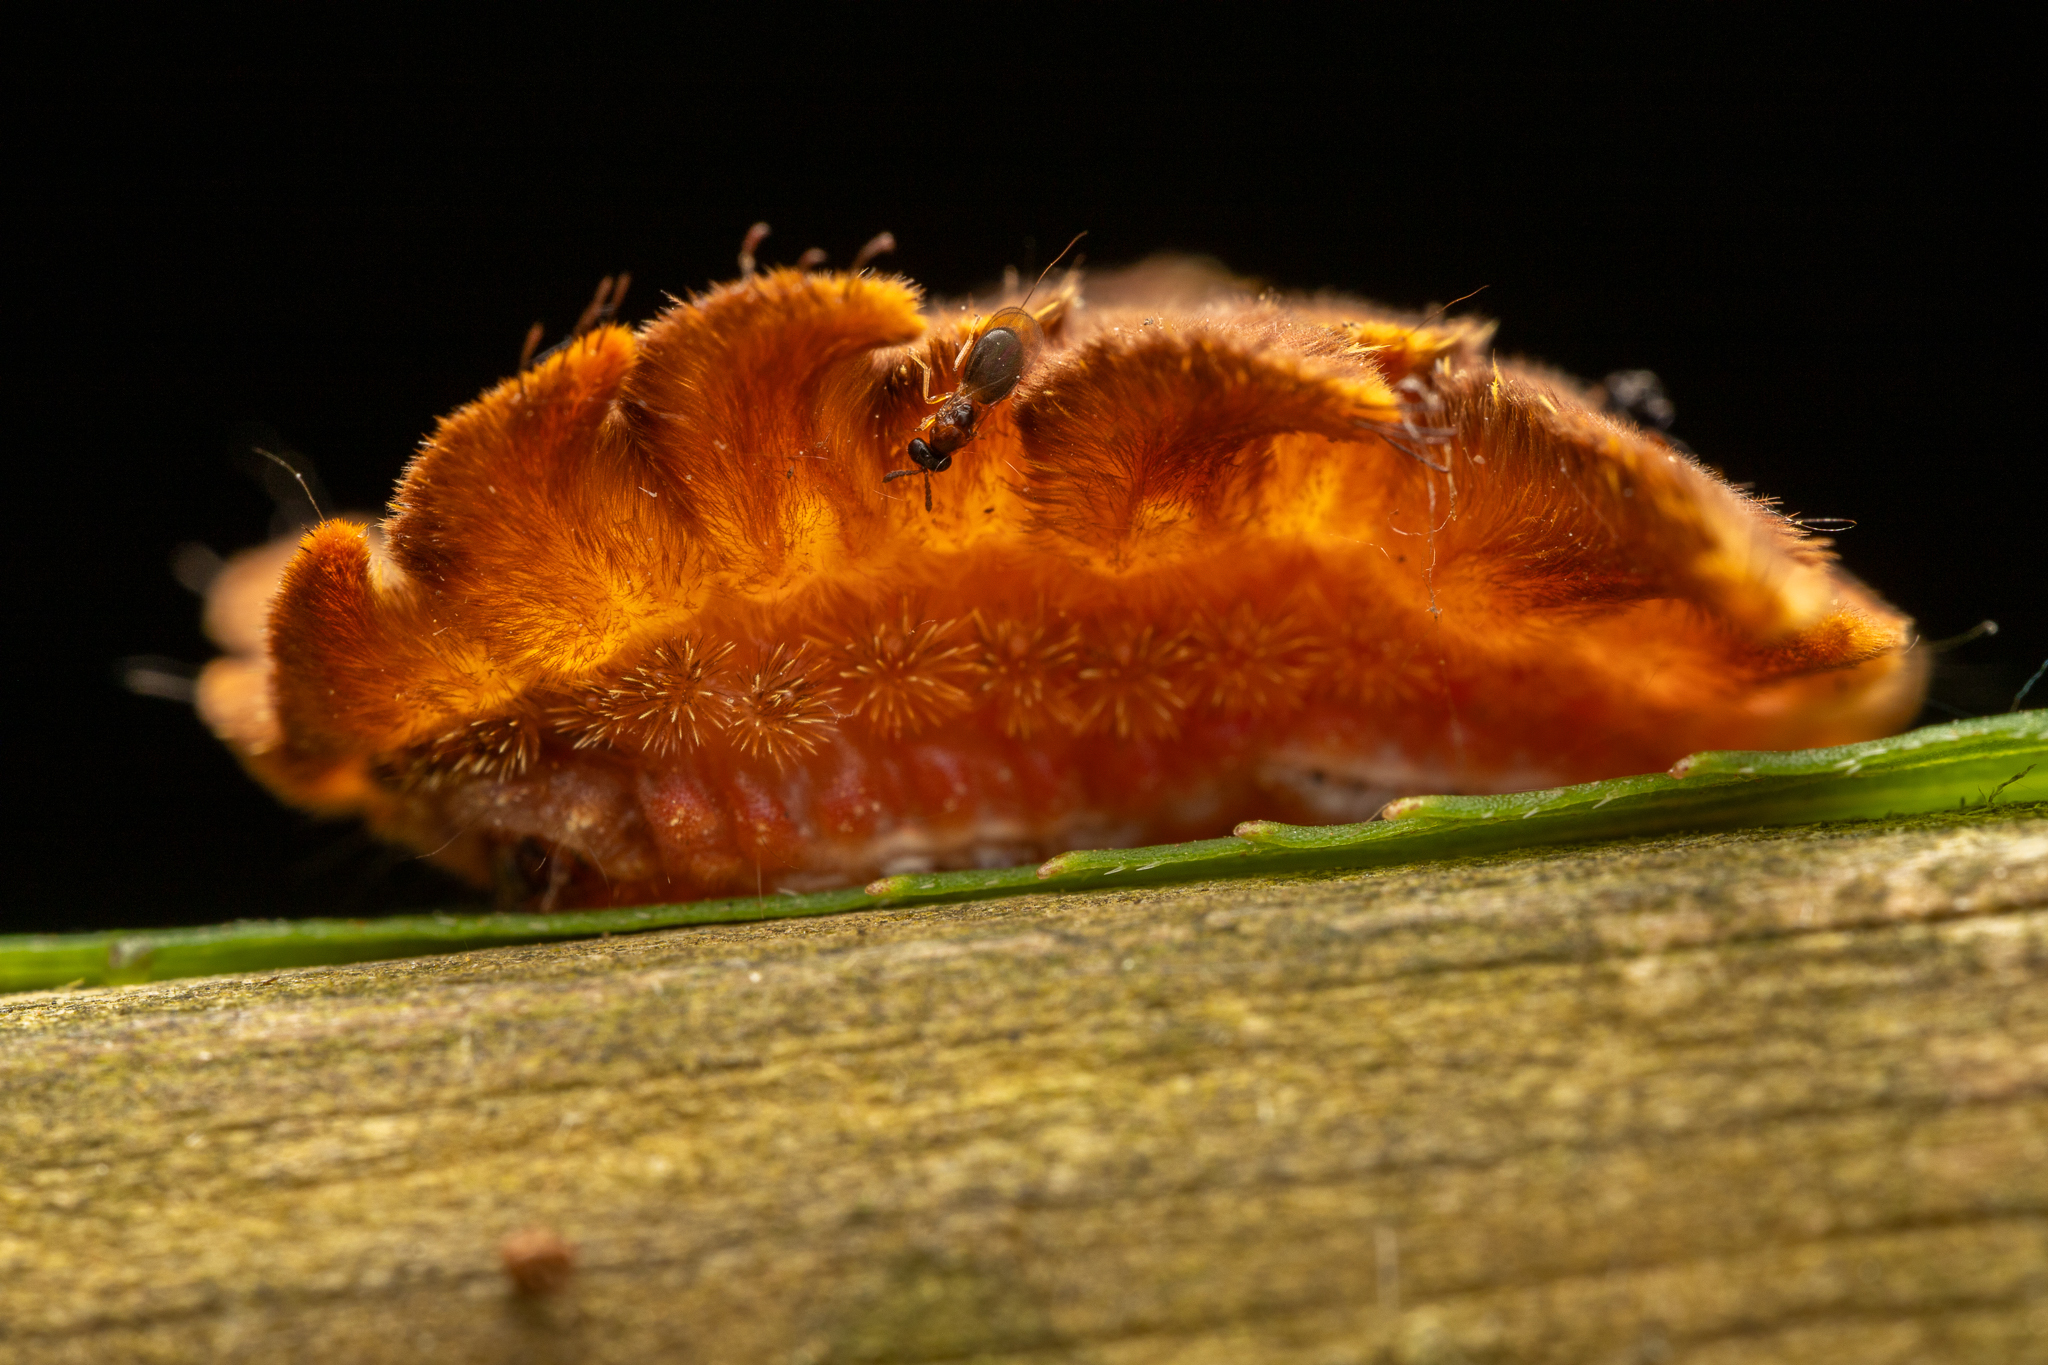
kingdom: Animalia
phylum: Arthropoda
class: Insecta
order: Lepidoptera
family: Limacodidae
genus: Phobetron
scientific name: Phobetron pithecium
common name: Hag moth
